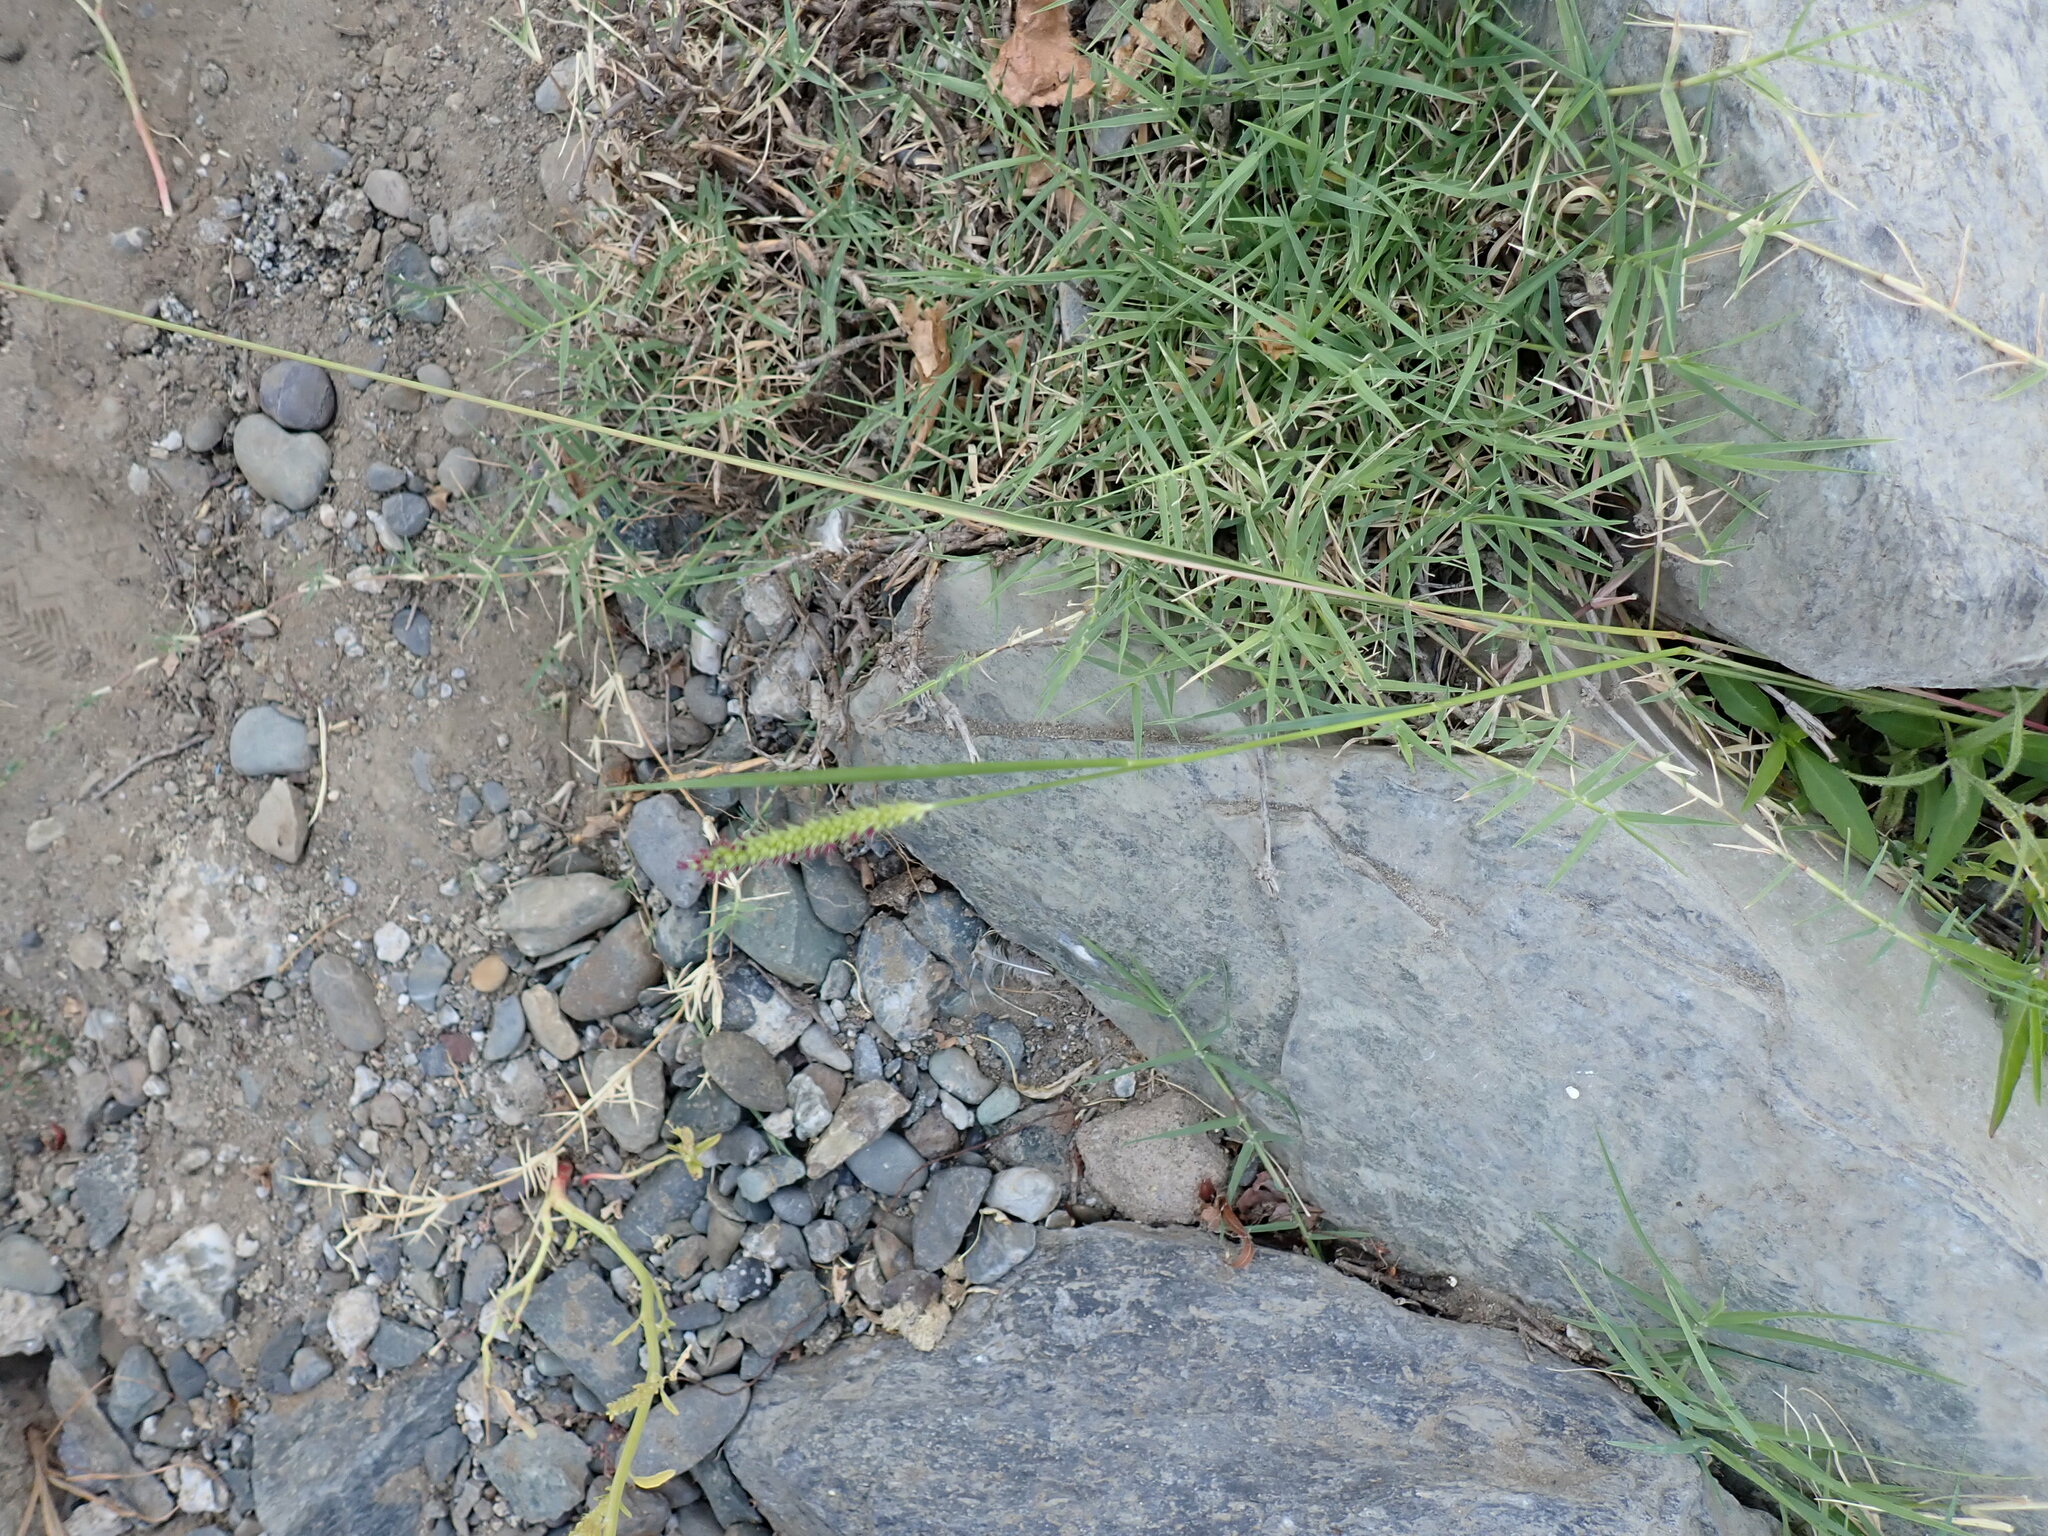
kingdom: Plantae
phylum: Tracheophyta
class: Liliopsida
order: Poales
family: Poaceae
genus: Setaria
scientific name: Setaria parviflora
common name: Knotroot bristle-grass
